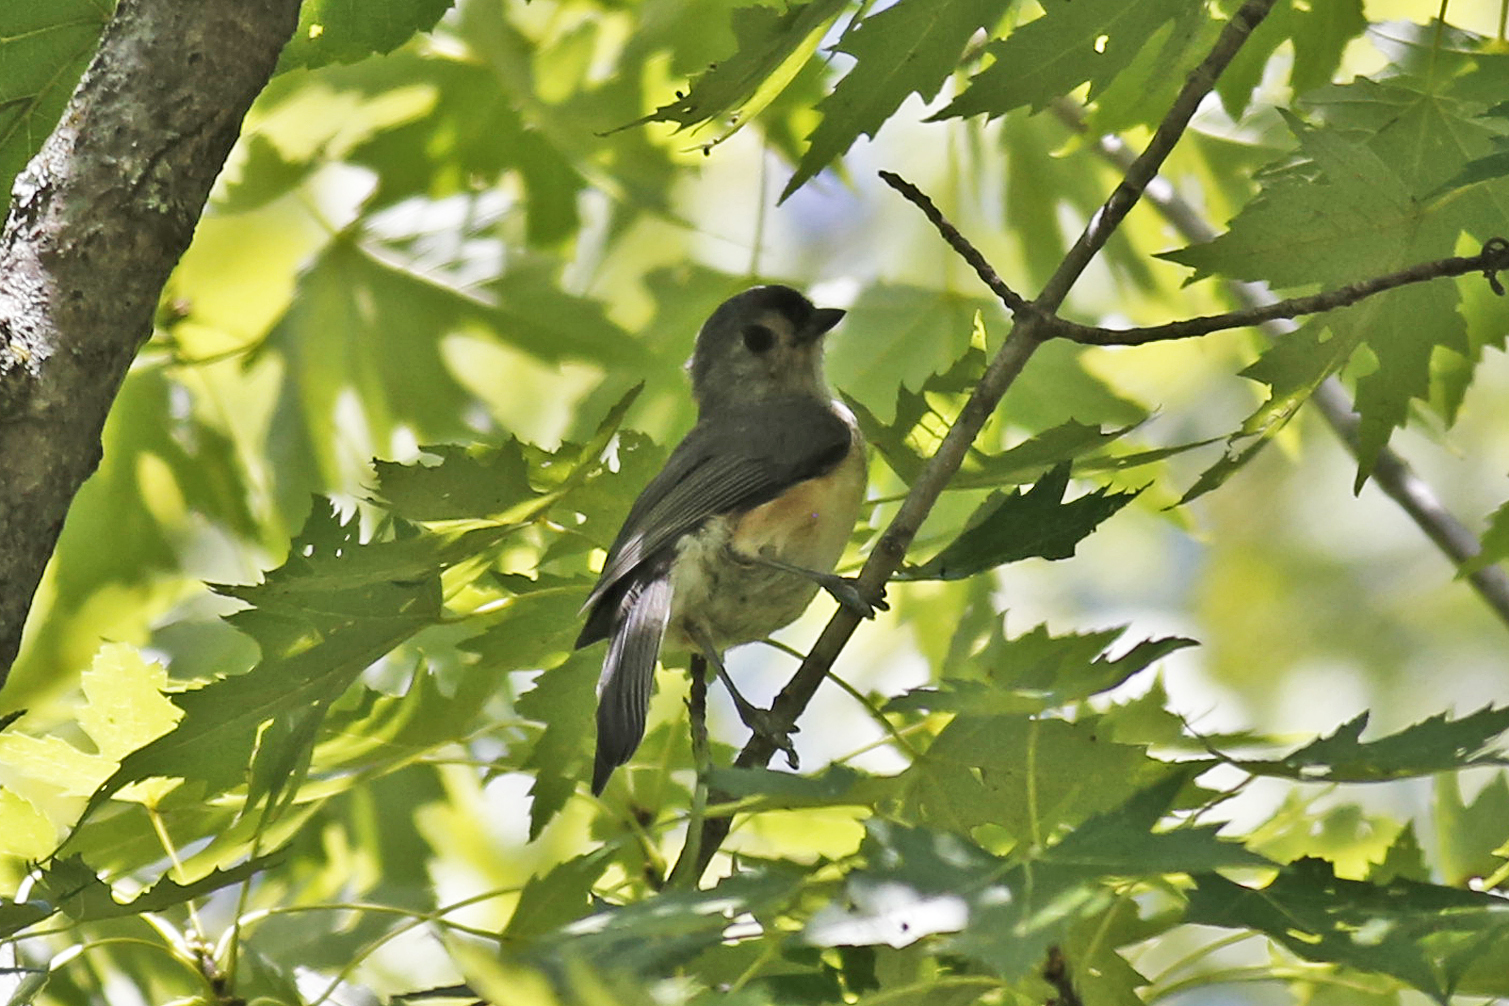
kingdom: Animalia
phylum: Chordata
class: Aves
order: Passeriformes
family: Paridae
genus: Baeolophus
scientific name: Baeolophus bicolor
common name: Tufted titmouse
